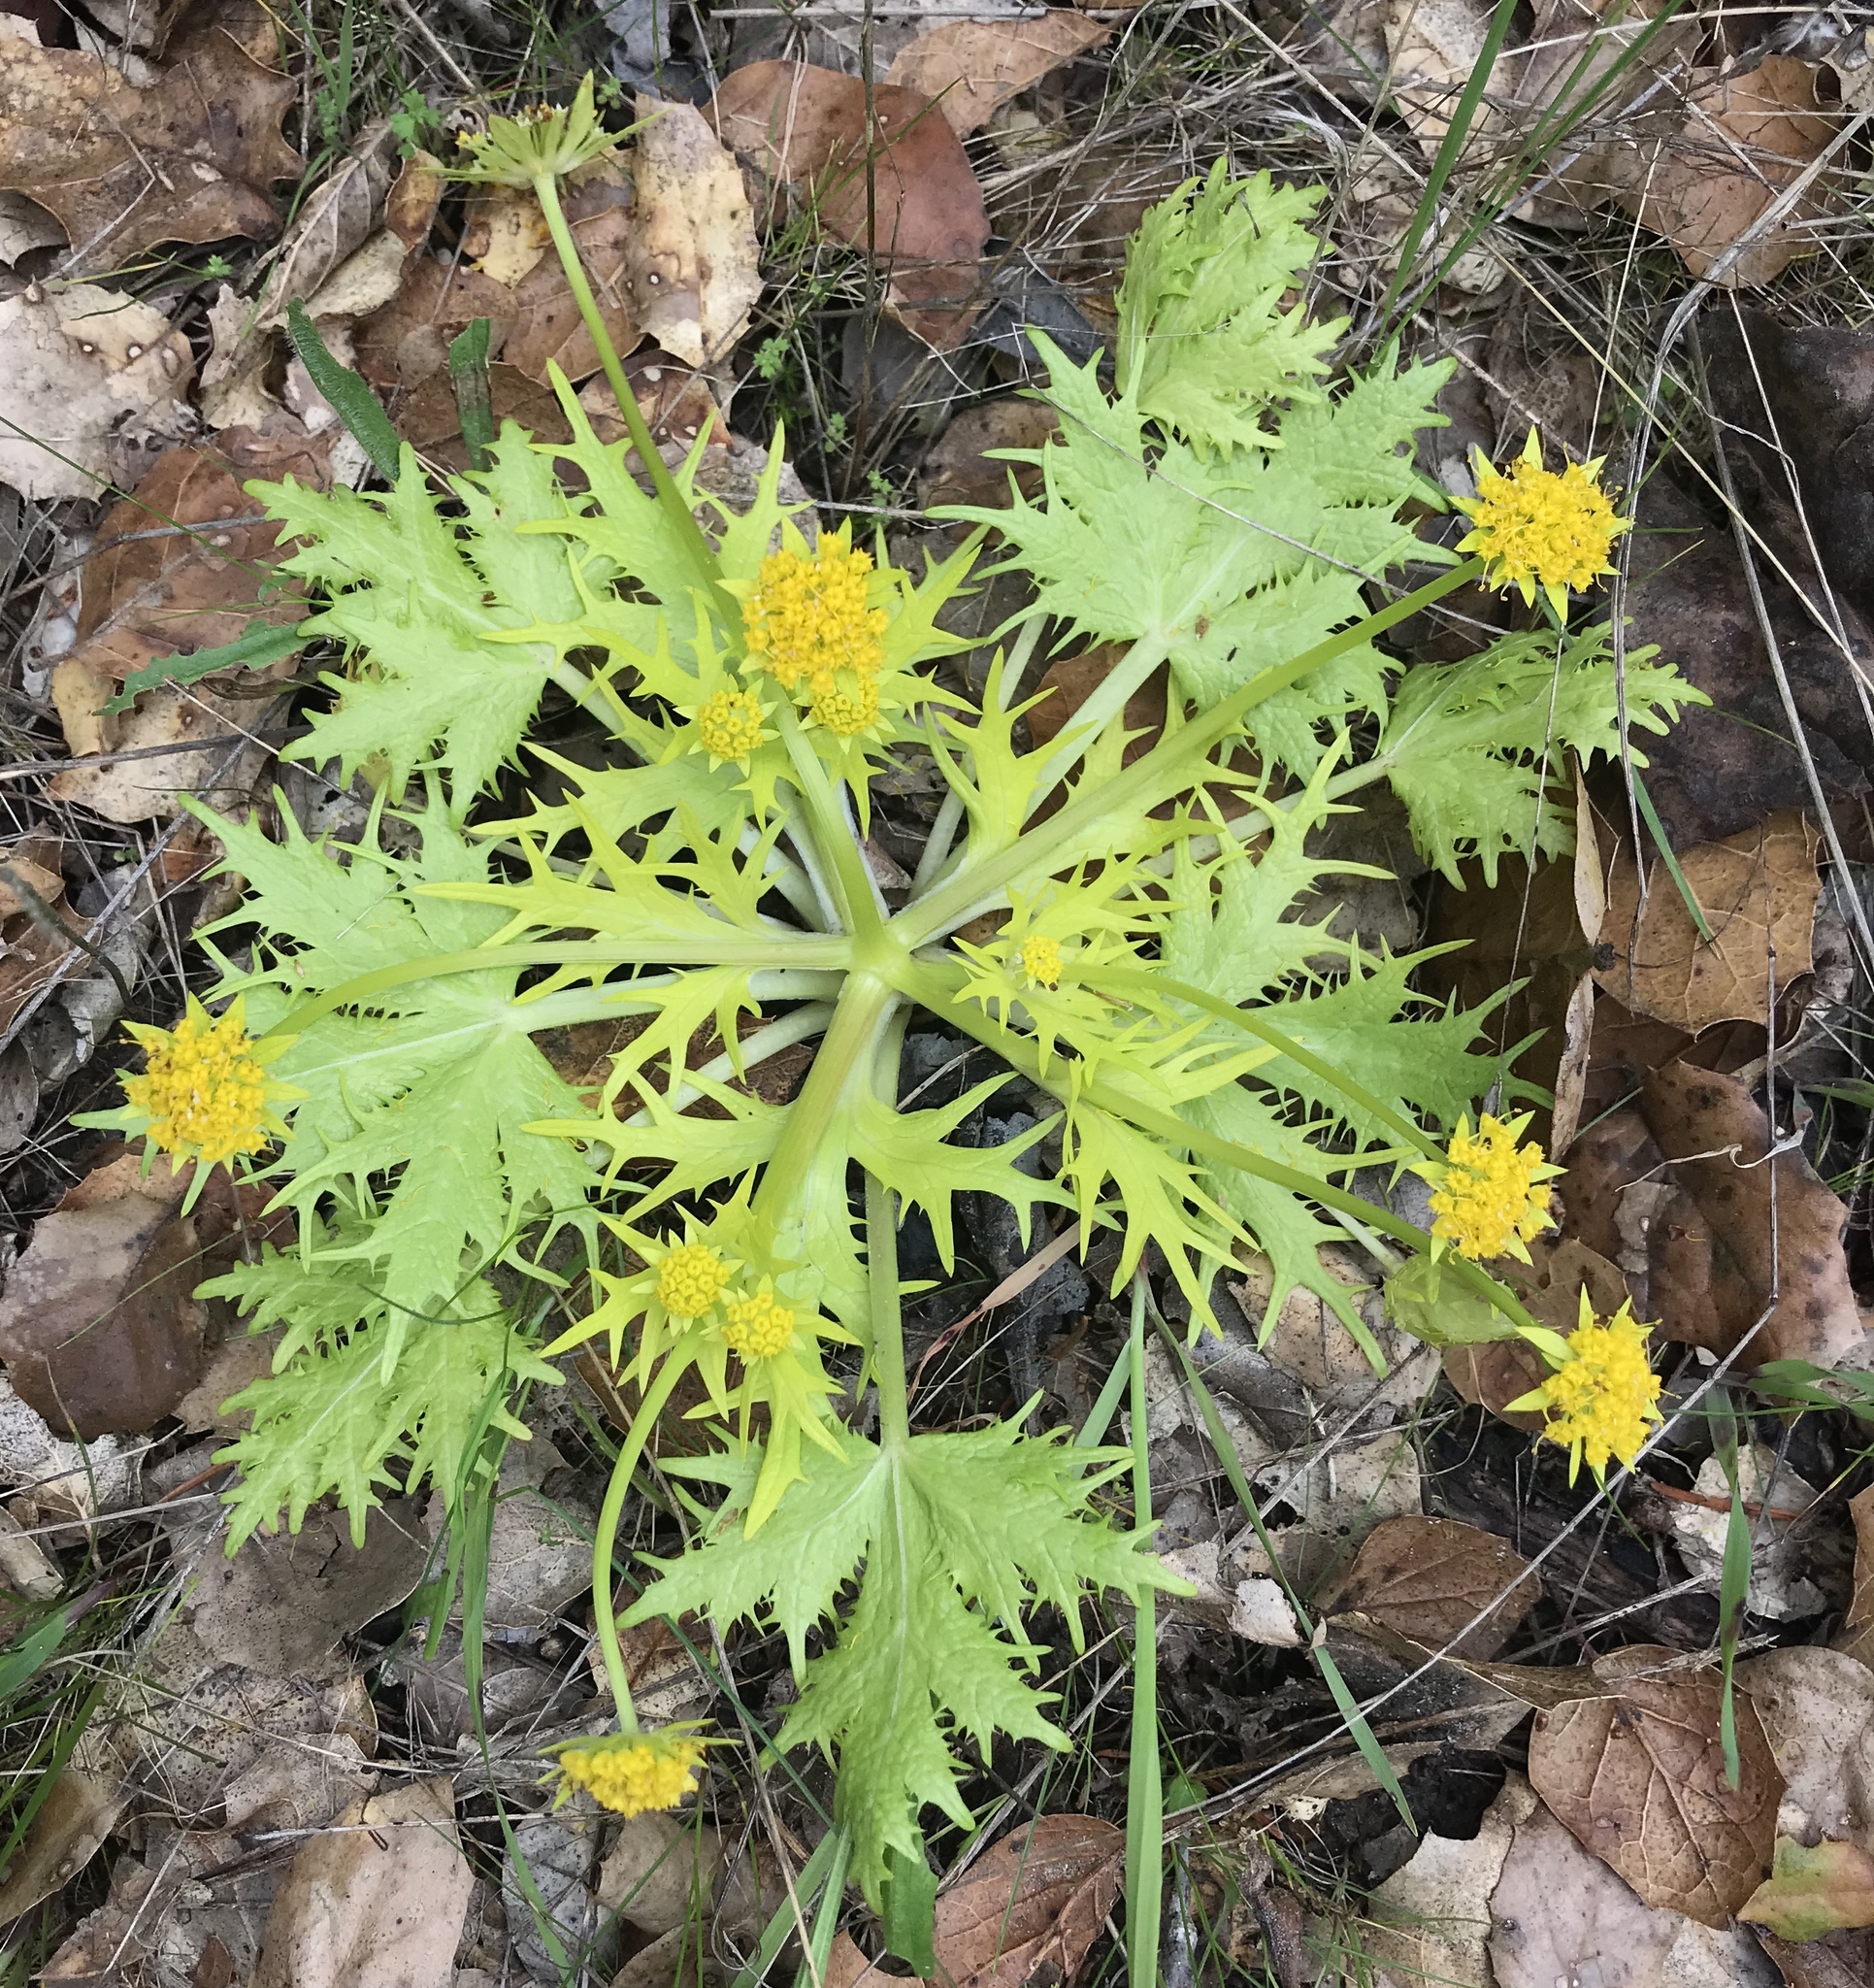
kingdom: Plantae
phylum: Tracheophyta
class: Magnoliopsida
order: Apiales
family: Apiaceae
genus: Sanicula
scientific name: Sanicula arctopoides
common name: Footsteps-of-spring
